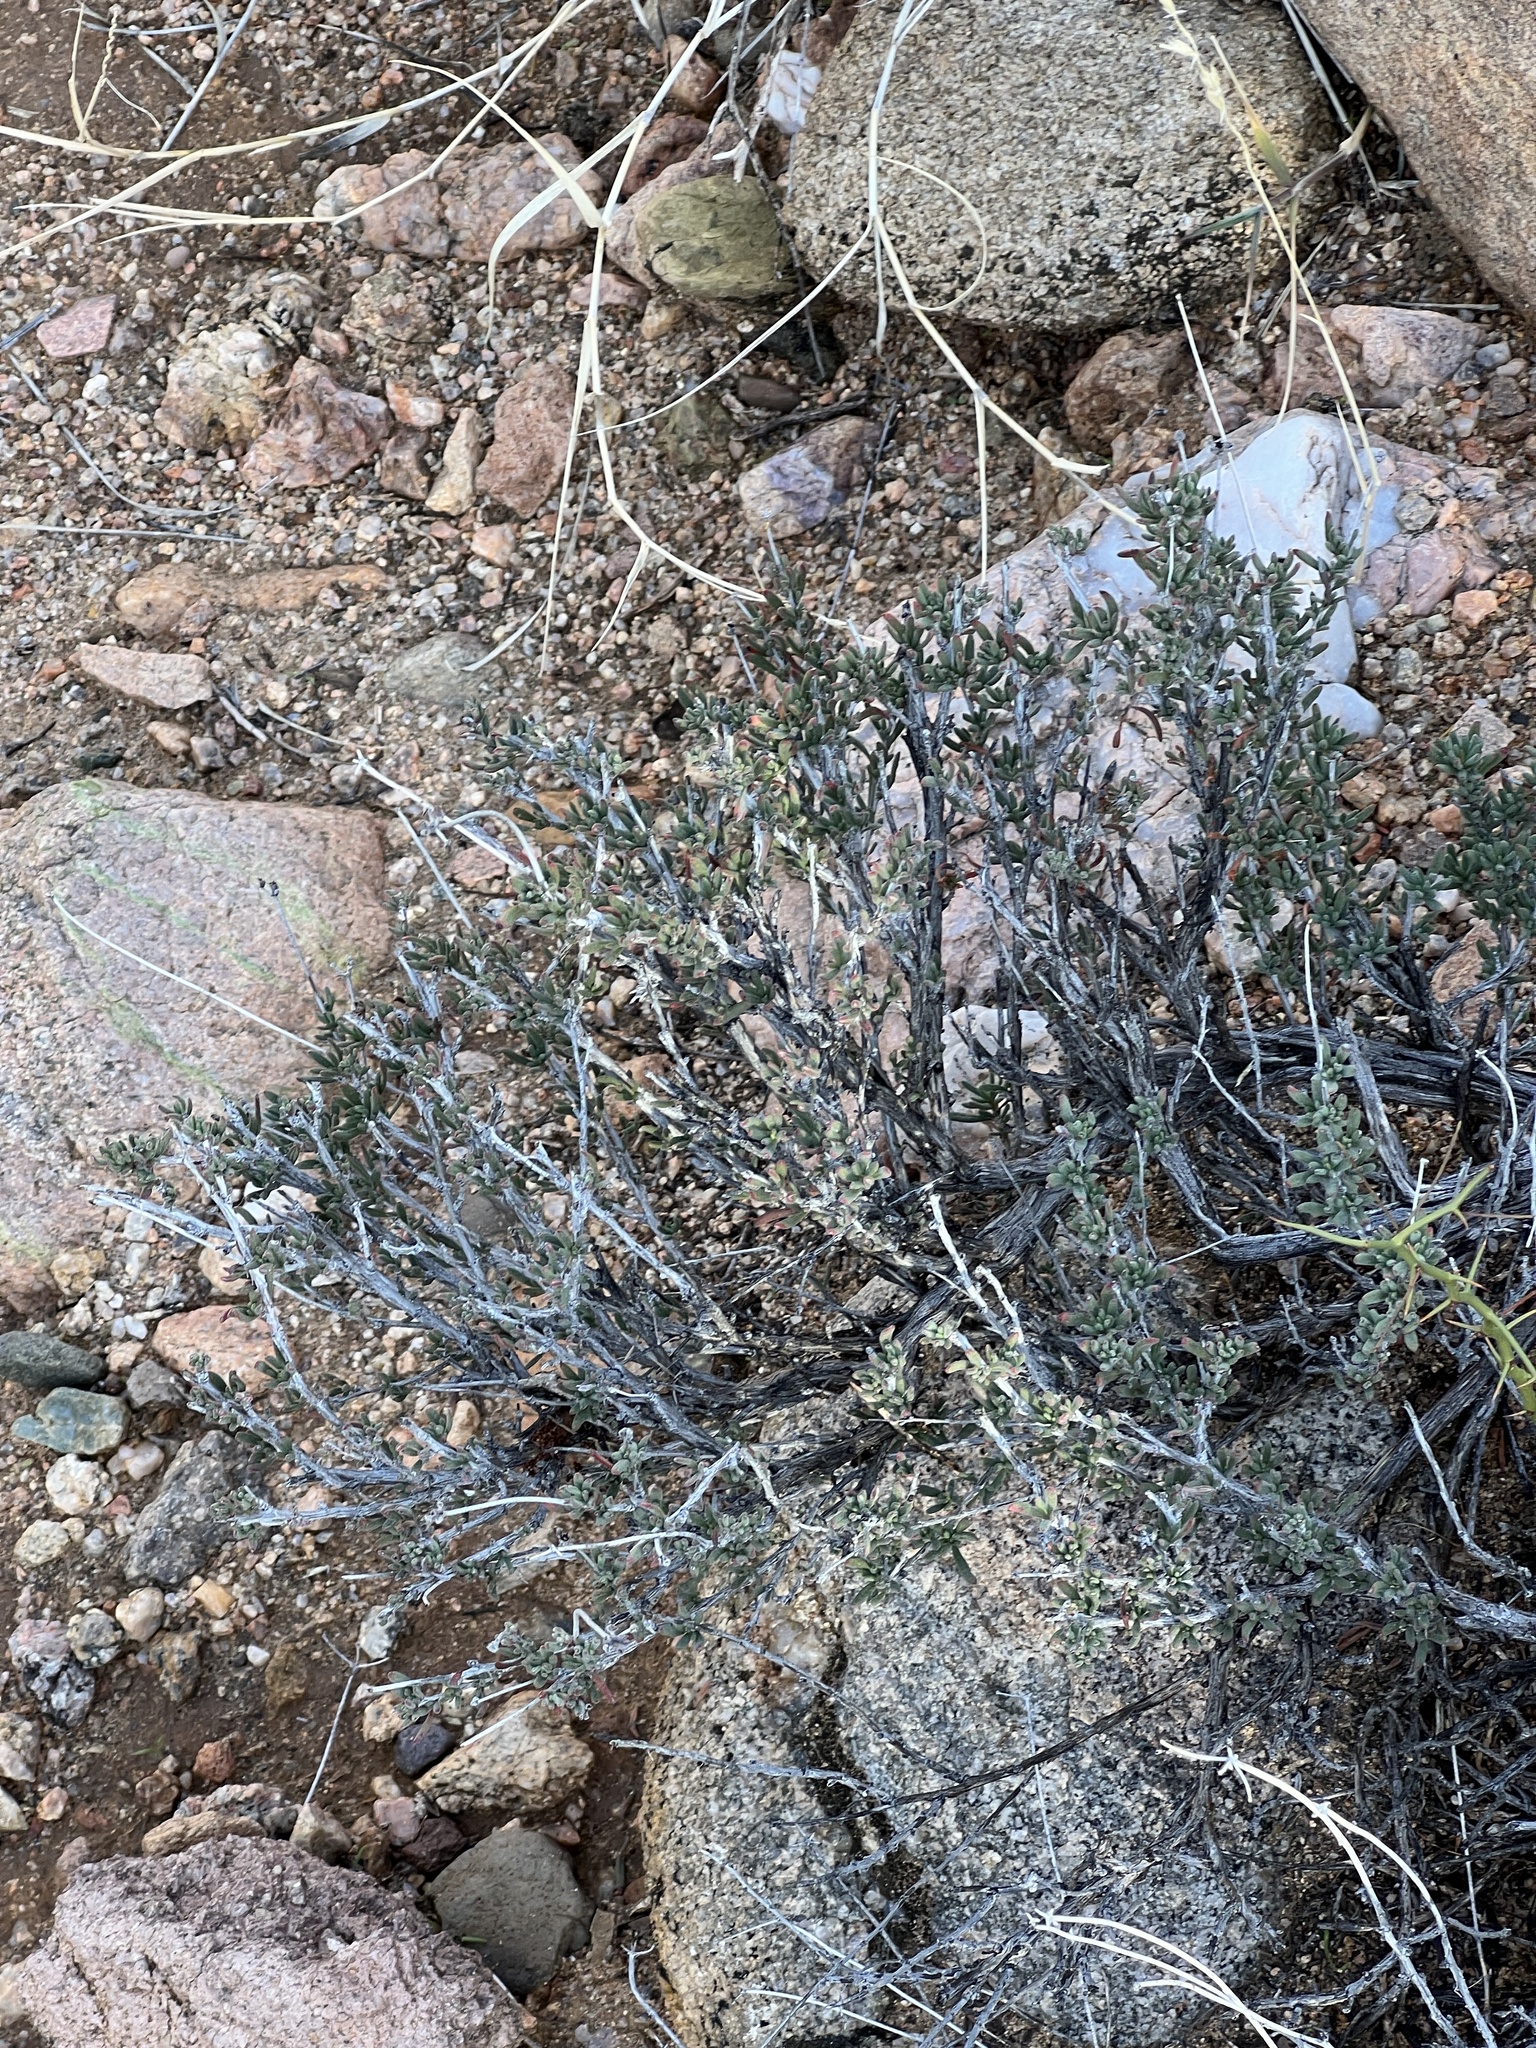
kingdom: Plantae
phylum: Tracheophyta
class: Magnoliopsida
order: Rosales
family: Rosaceae
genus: Coleogyne
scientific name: Coleogyne ramosissima
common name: Blackbrush
